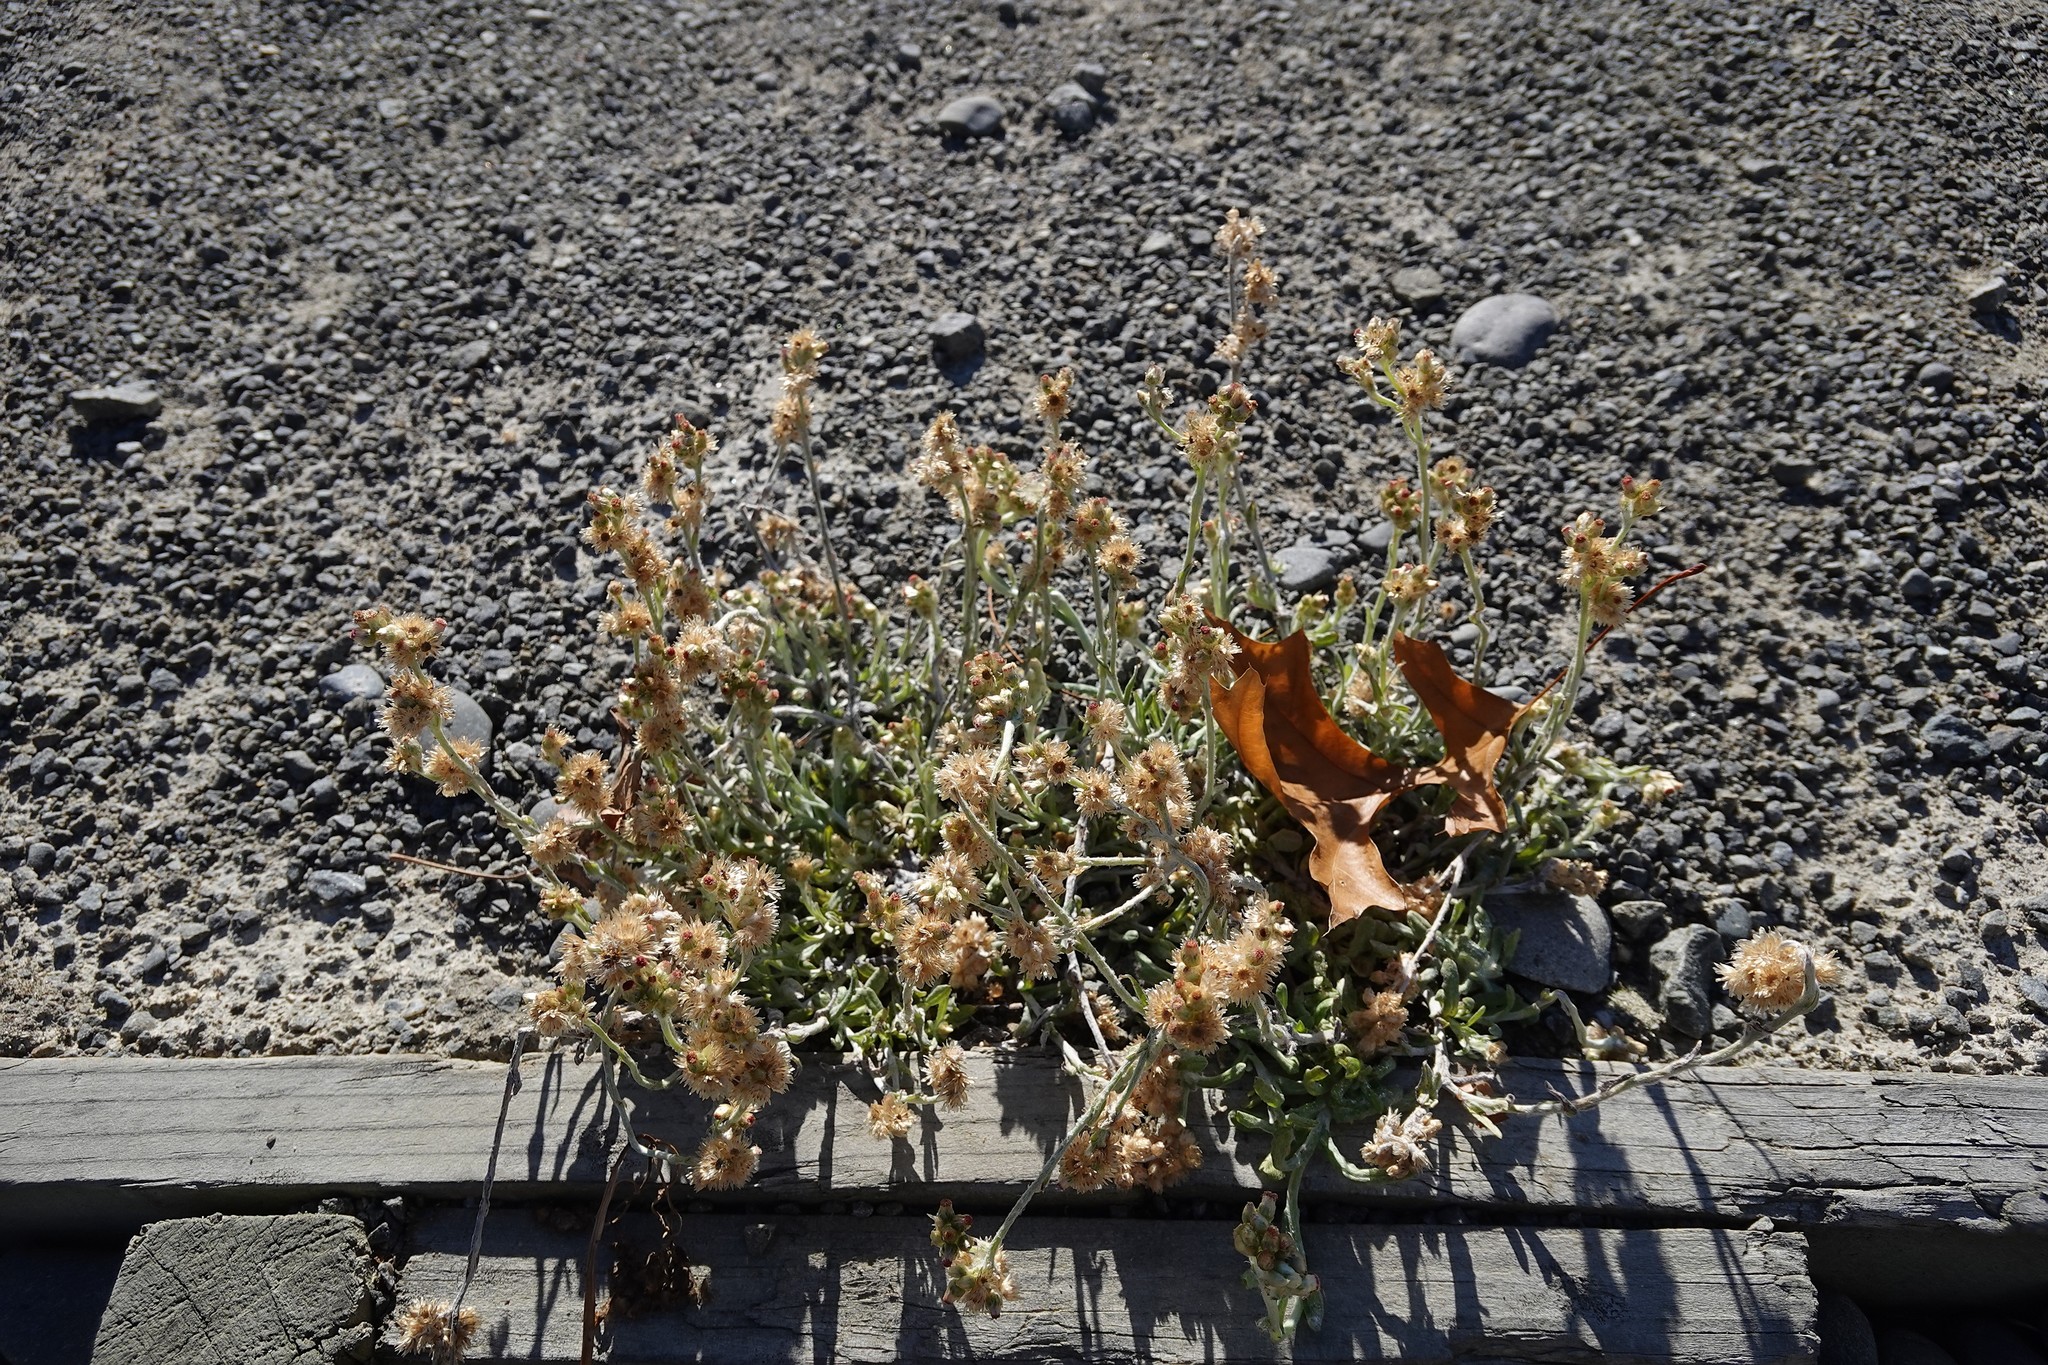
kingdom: Plantae
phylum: Tracheophyta
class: Magnoliopsida
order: Asterales
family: Asteraceae
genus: Helichrysum
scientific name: Helichrysum luteoalbum
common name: Daisy
